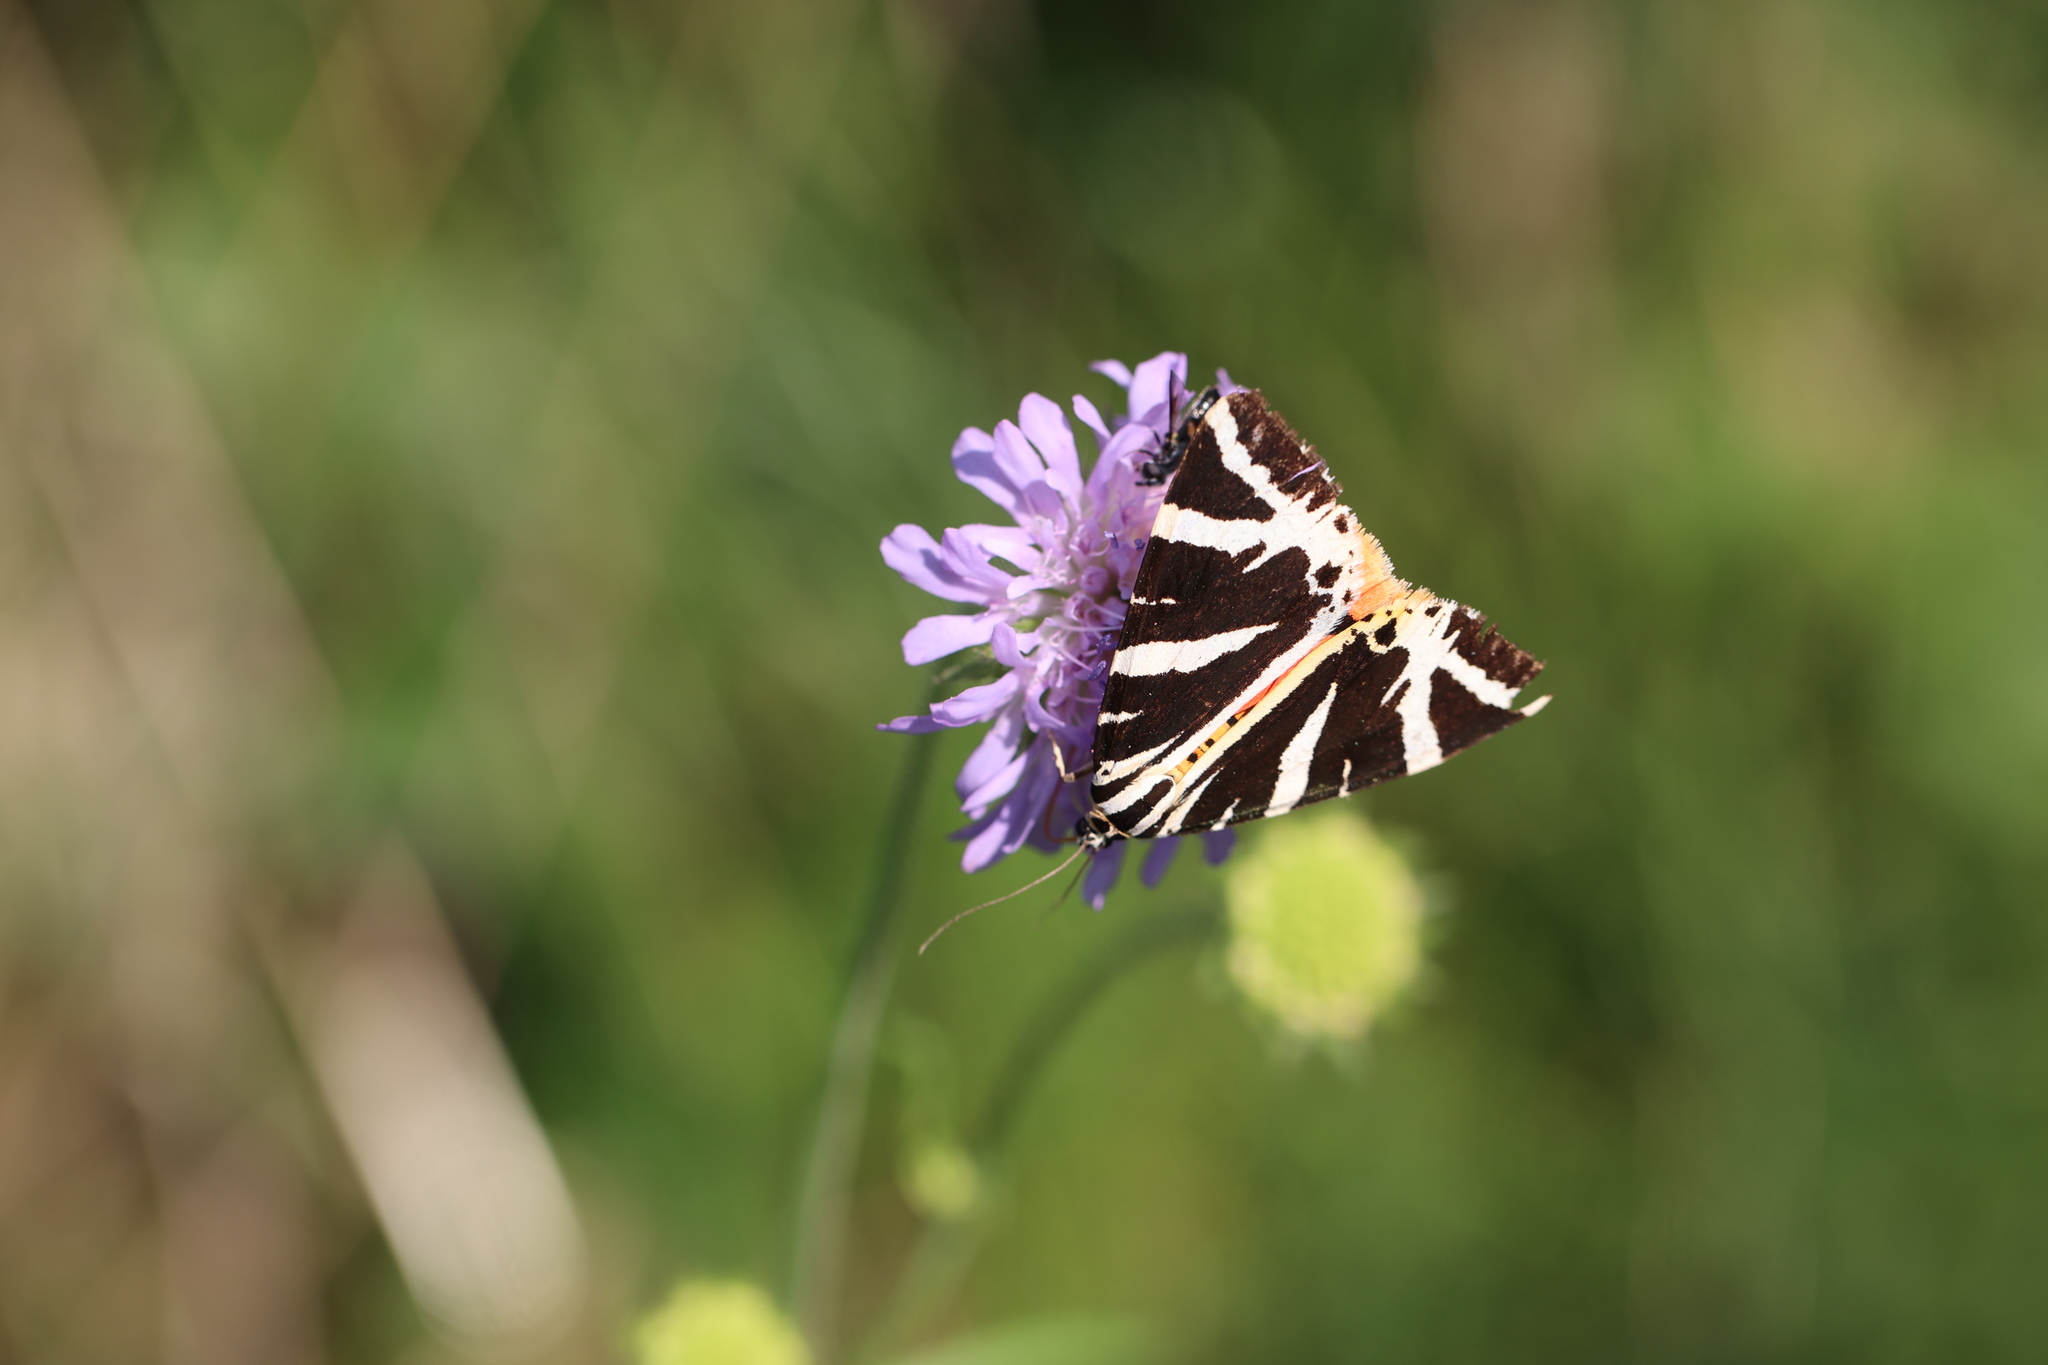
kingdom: Animalia
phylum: Arthropoda
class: Insecta
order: Lepidoptera
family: Erebidae
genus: Euplagia
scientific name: Euplagia quadripunctaria
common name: Jersey tiger
